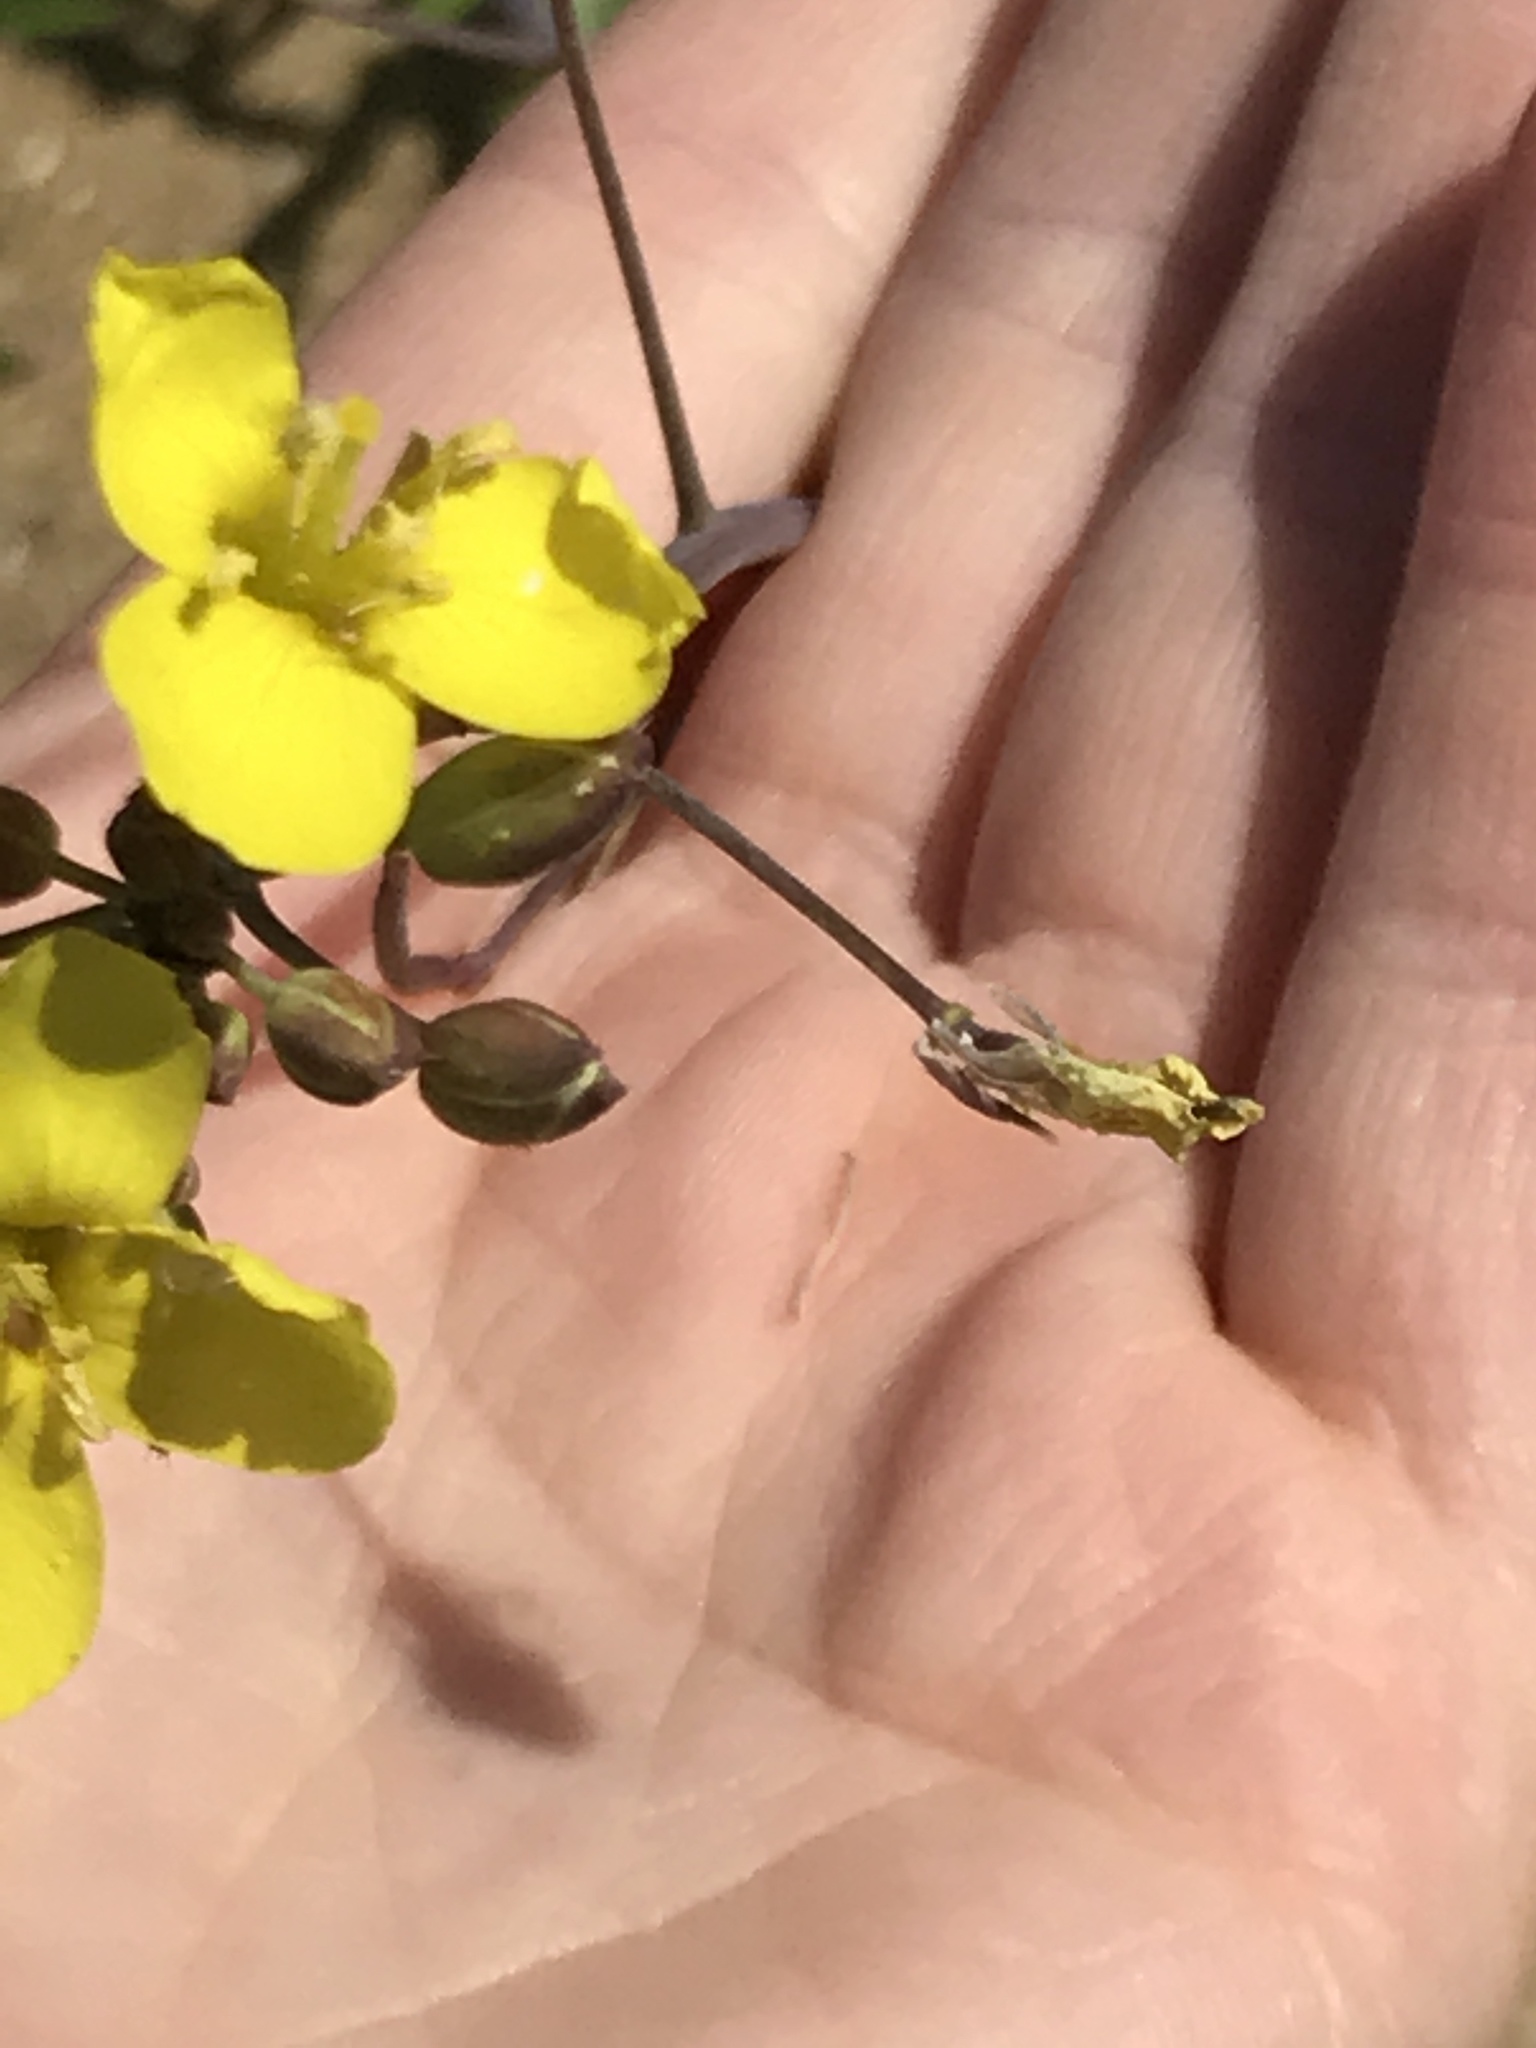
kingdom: Plantae
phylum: Tracheophyta
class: Magnoliopsida
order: Brassicales
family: Brassicaceae
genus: Diplotaxis
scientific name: Diplotaxis tenuifolia
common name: Perennial wall-rocket
